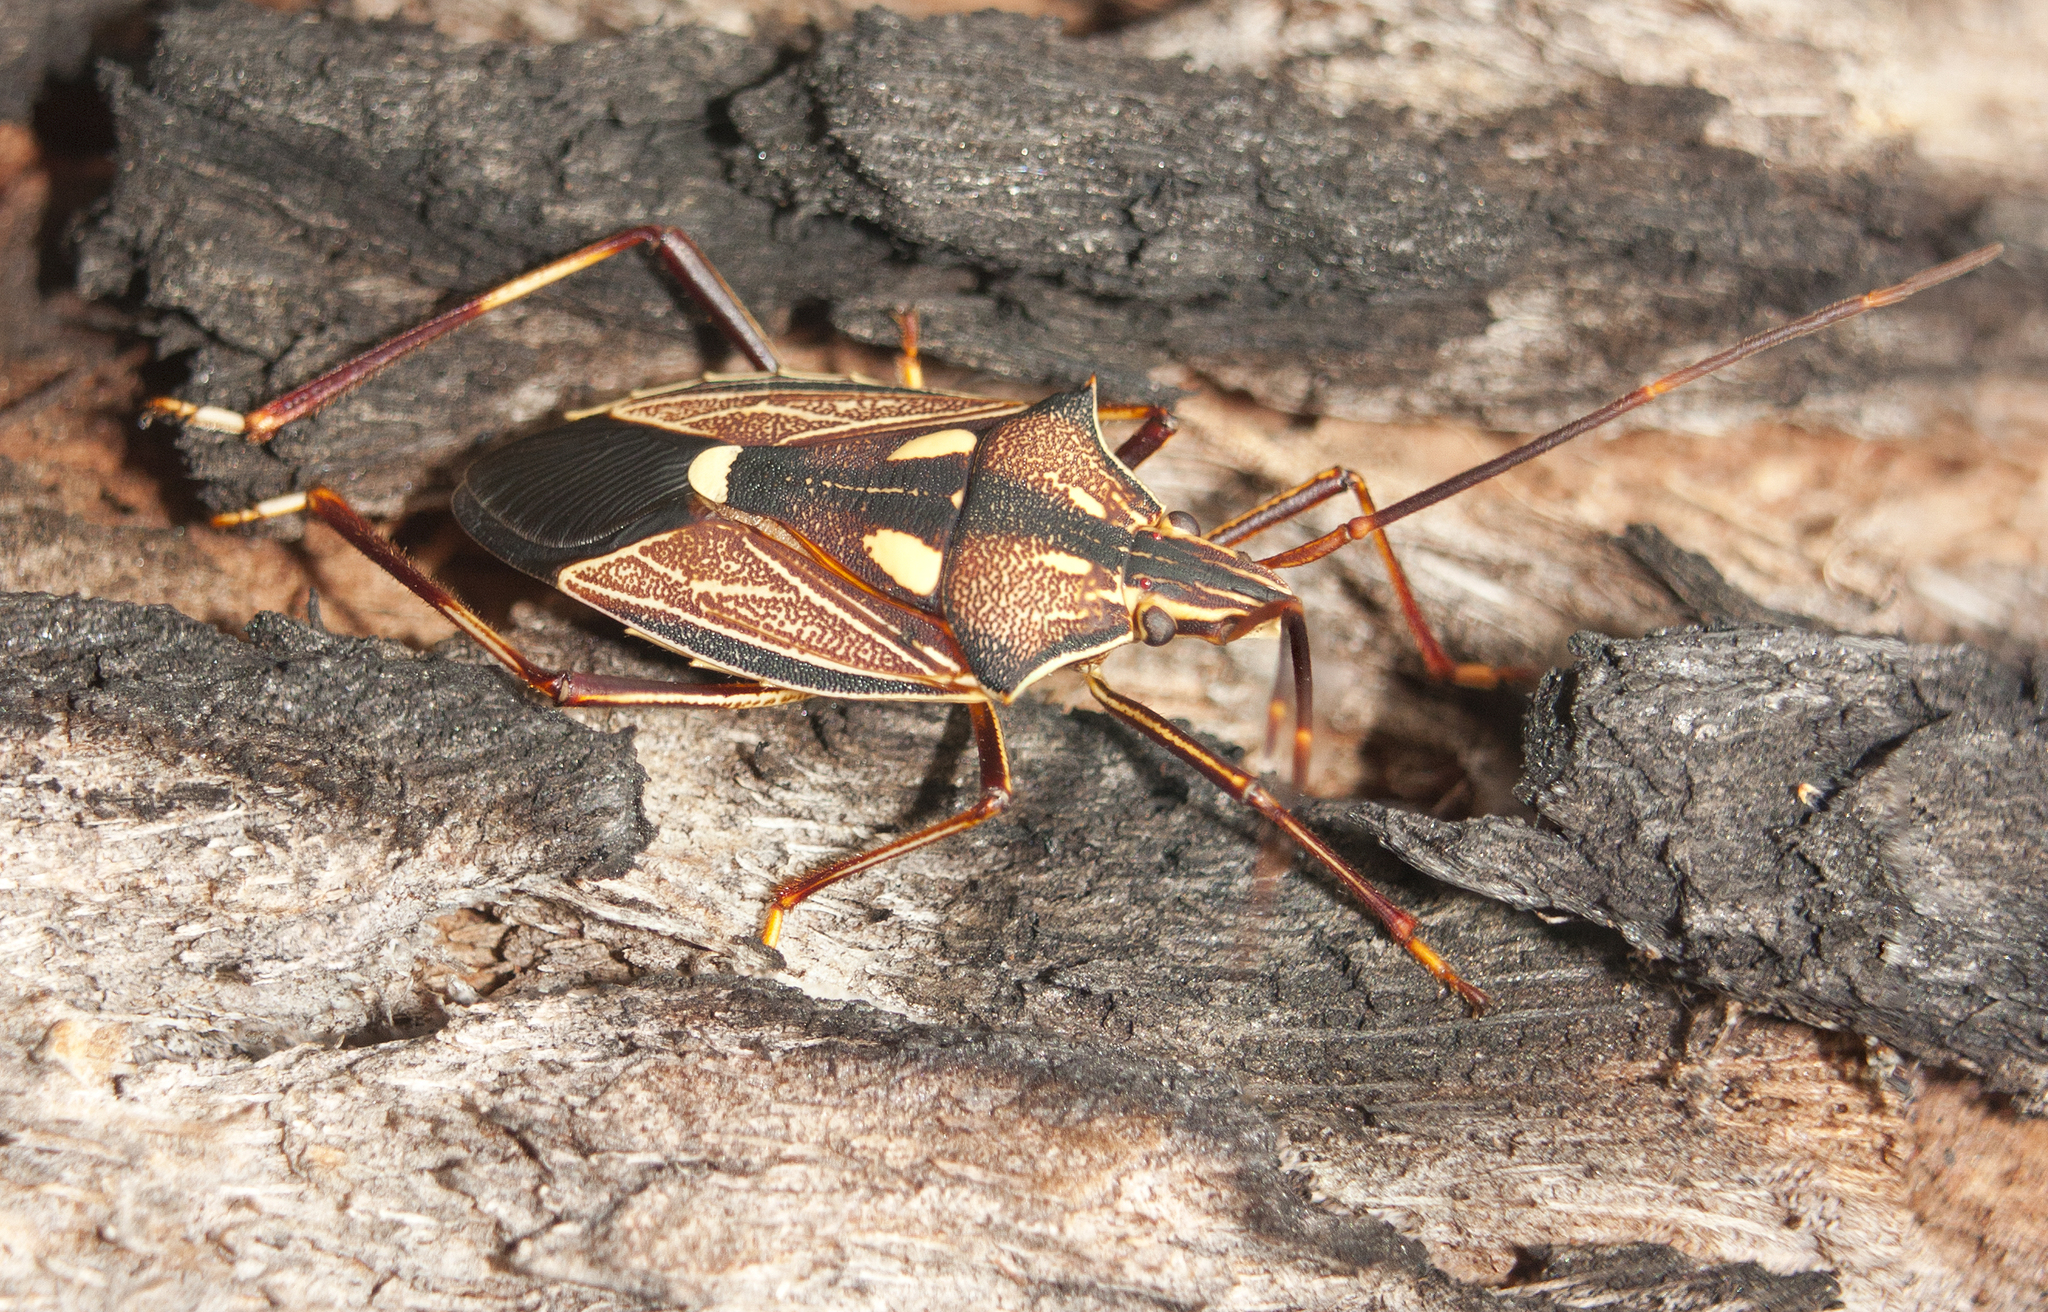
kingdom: Animalia
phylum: Arthropoda
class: Insecta
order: Hemiptera
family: Pentatomidae
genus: Poecilometis
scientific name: Poecilometis armatus
